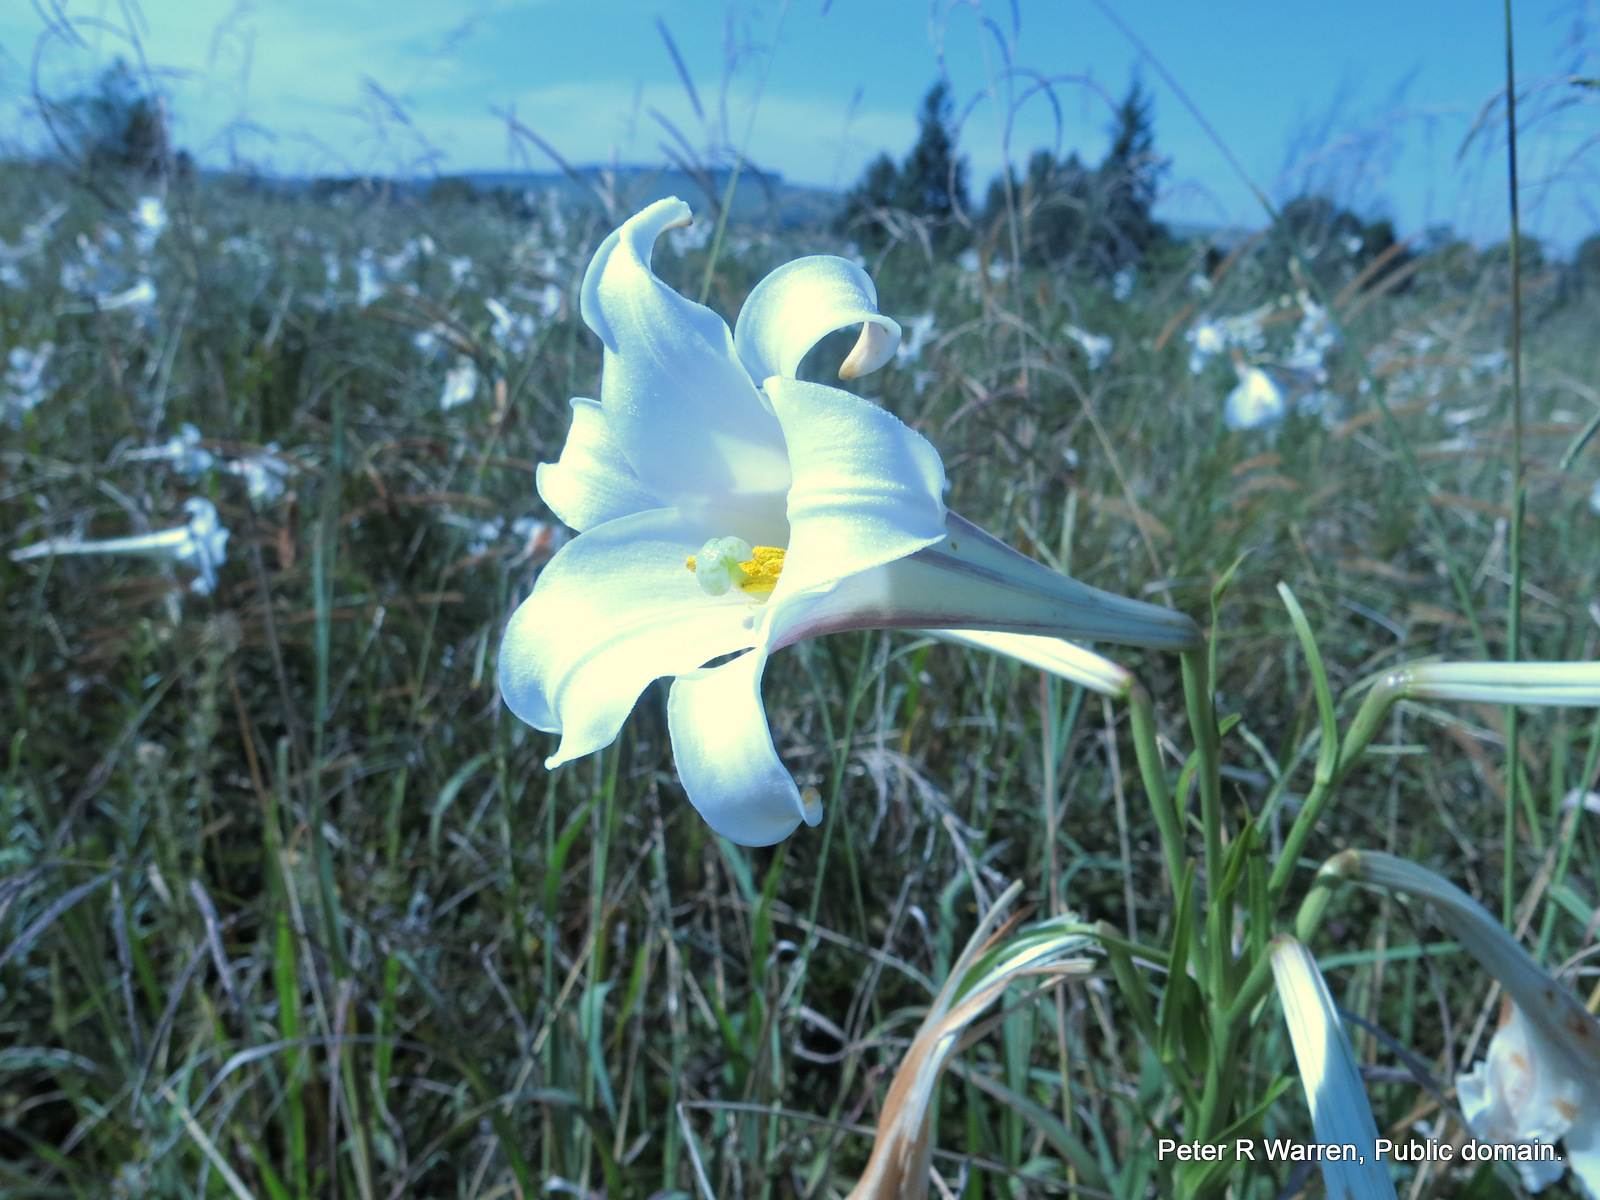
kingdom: Plantae
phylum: Tracheophyta
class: Liliopsida
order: Liliales
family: Liliaceae
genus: Lilium
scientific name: Lilium formosanum
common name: Formosa lily
